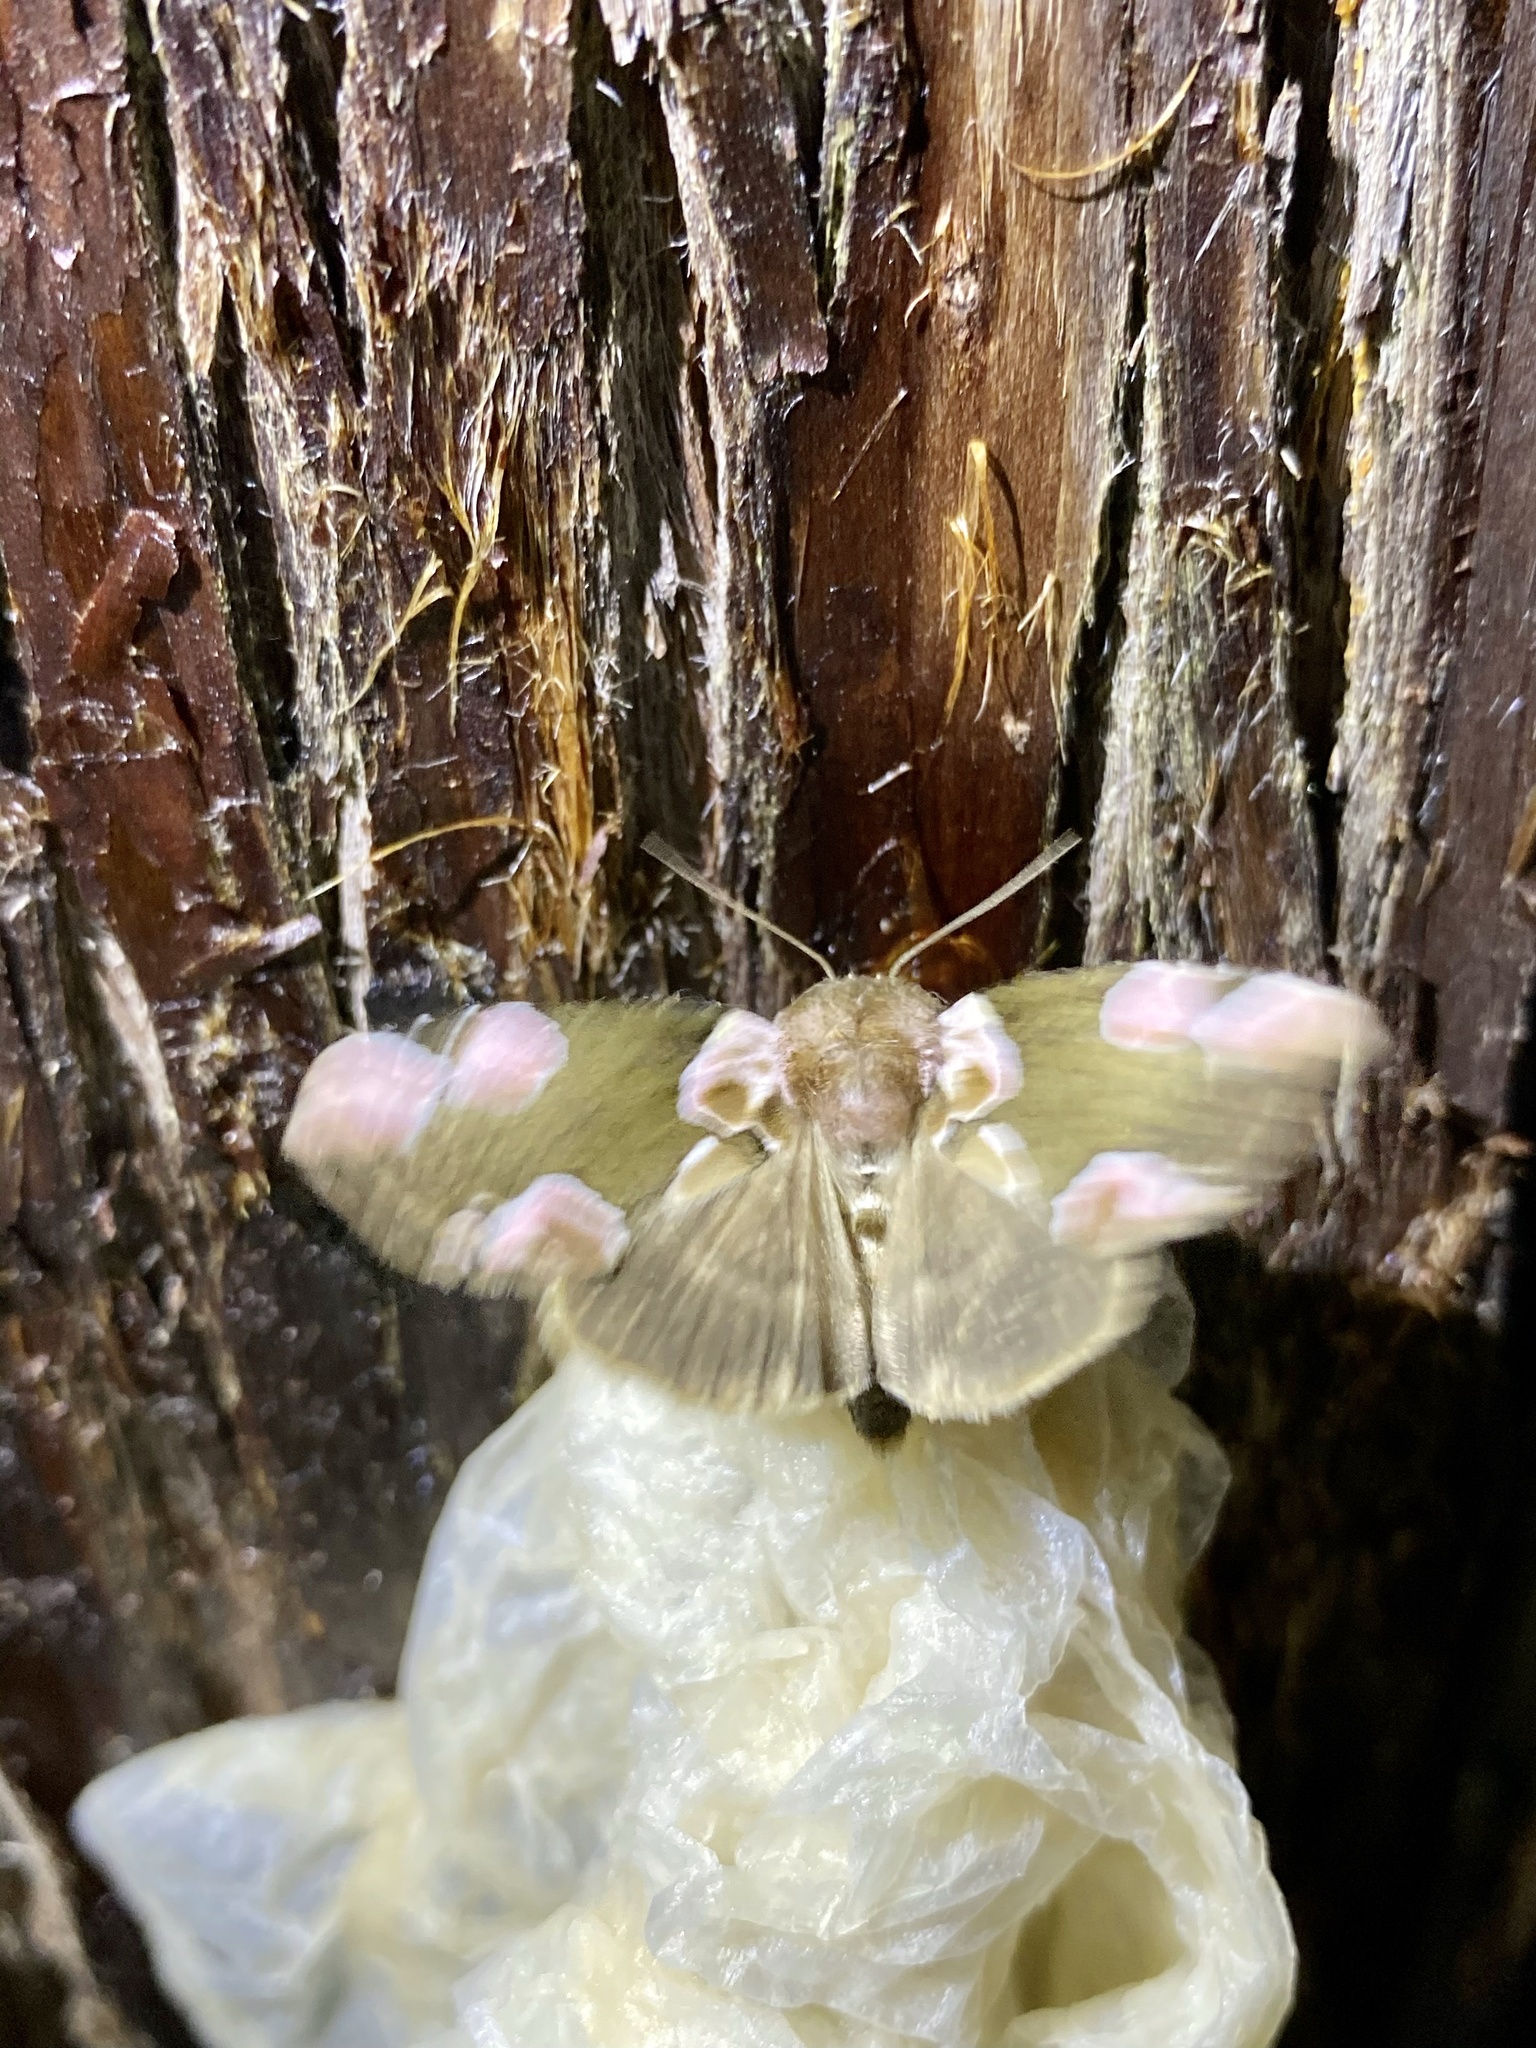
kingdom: Animalia
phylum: Arthropoda
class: Insecta
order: Lepidoptera
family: Drepanidae
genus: Thyatira
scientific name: Thyatira batis
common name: Peach blossom
